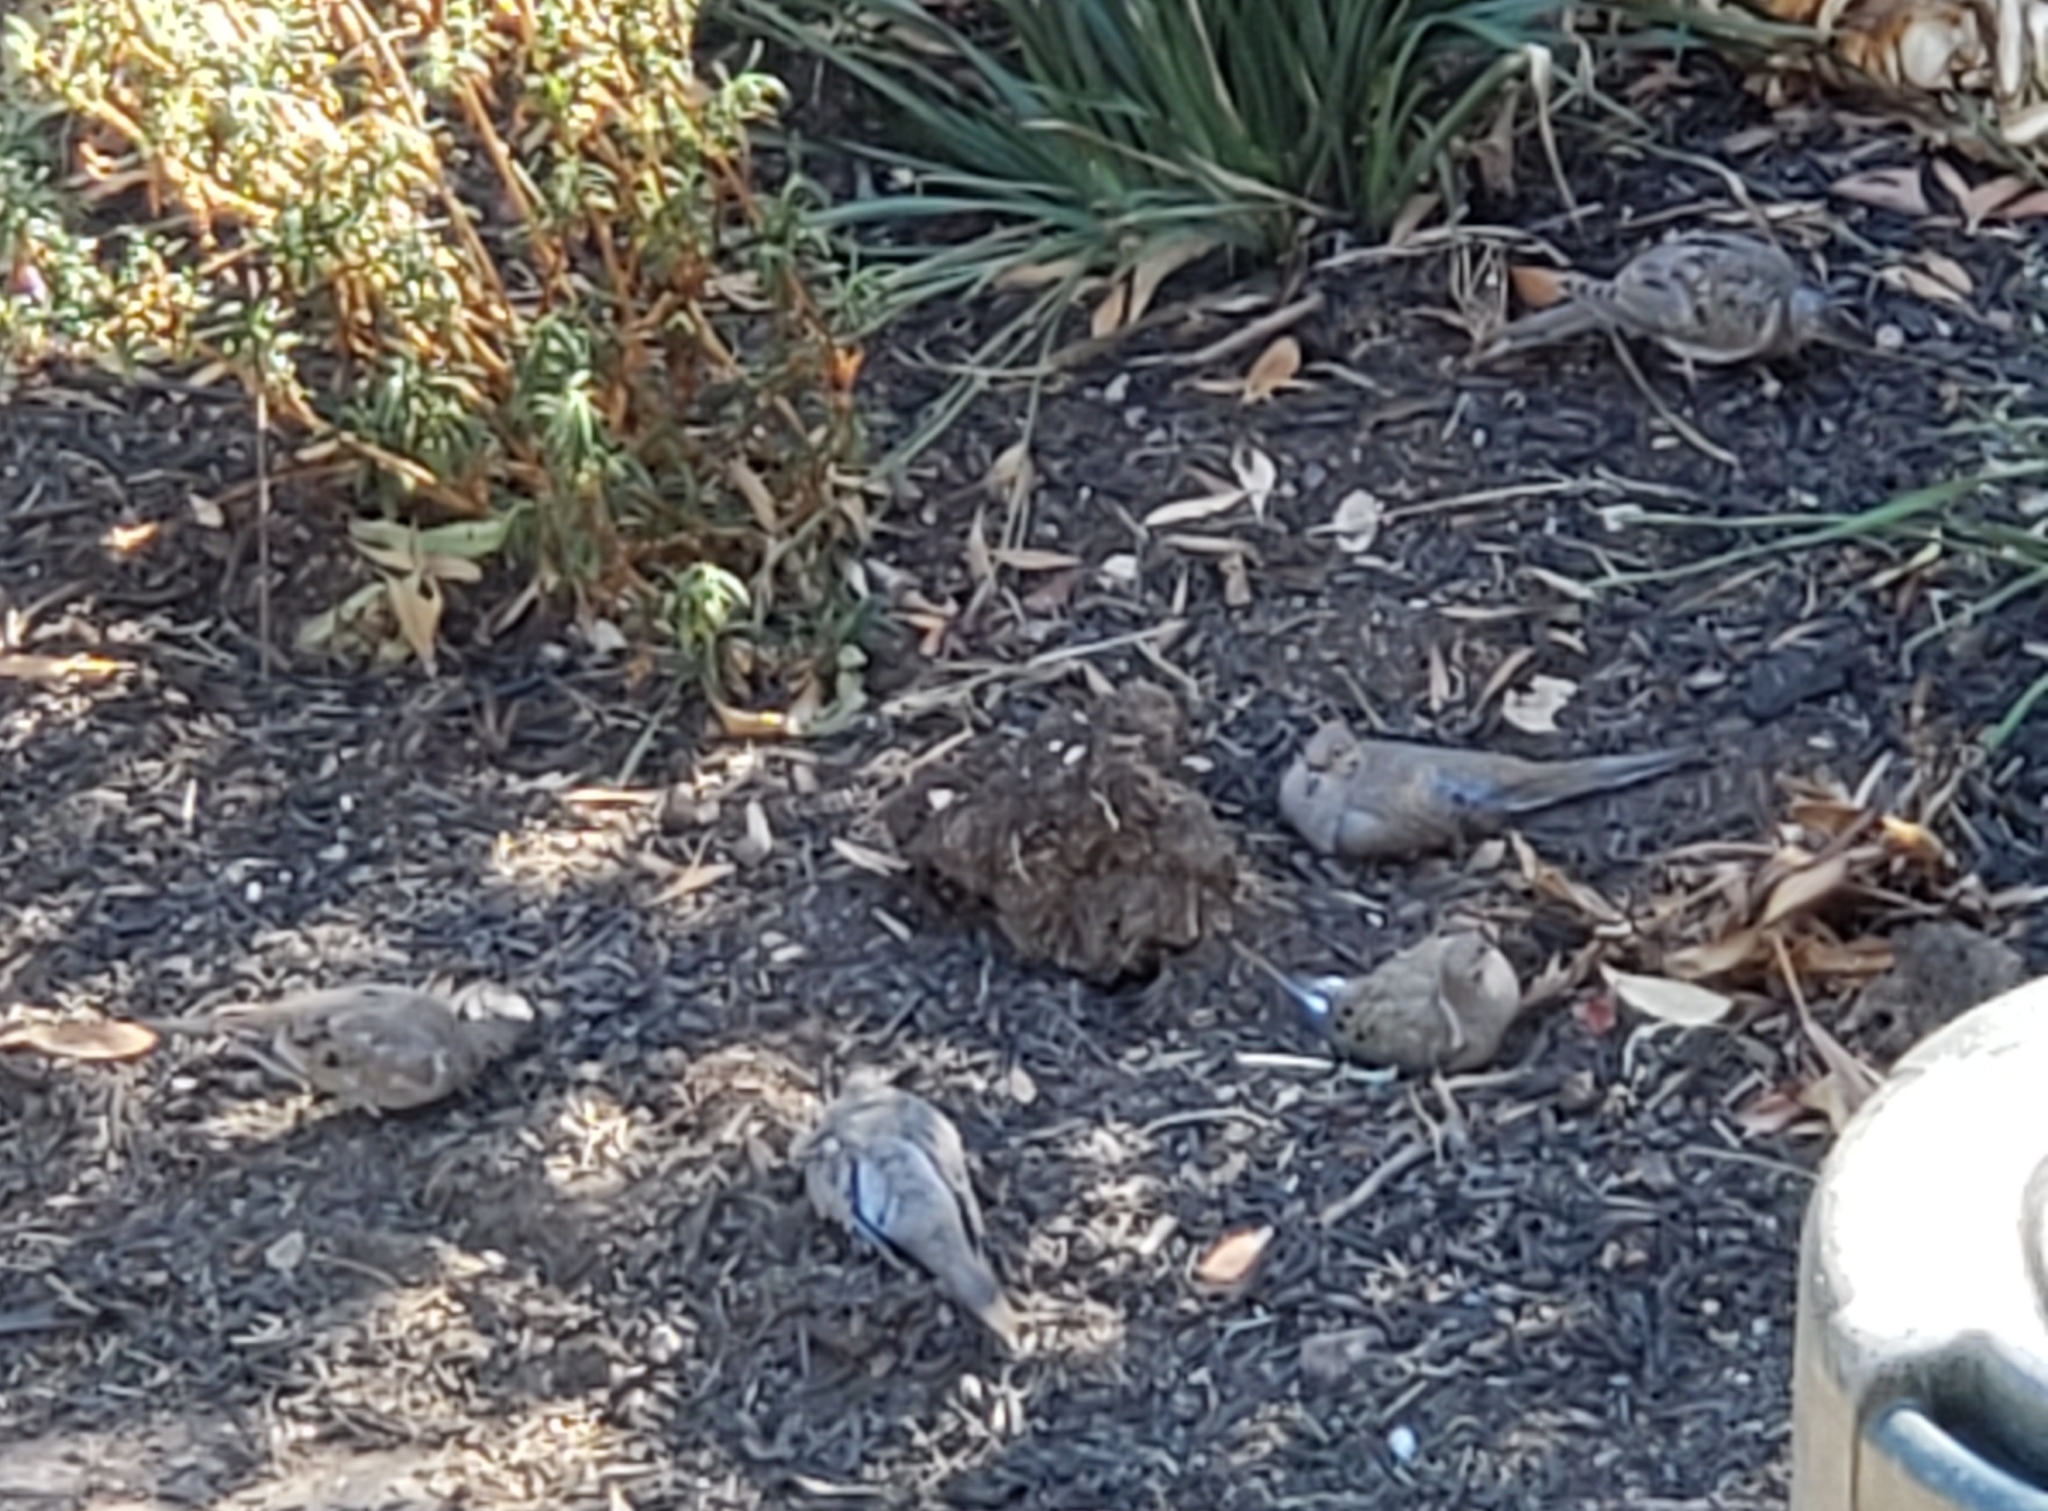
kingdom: Animalia
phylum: Chordata
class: Aves
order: Columbiformes
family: Columbidae
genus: Zenaida
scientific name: Zenaida macroura
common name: Mourning dove
